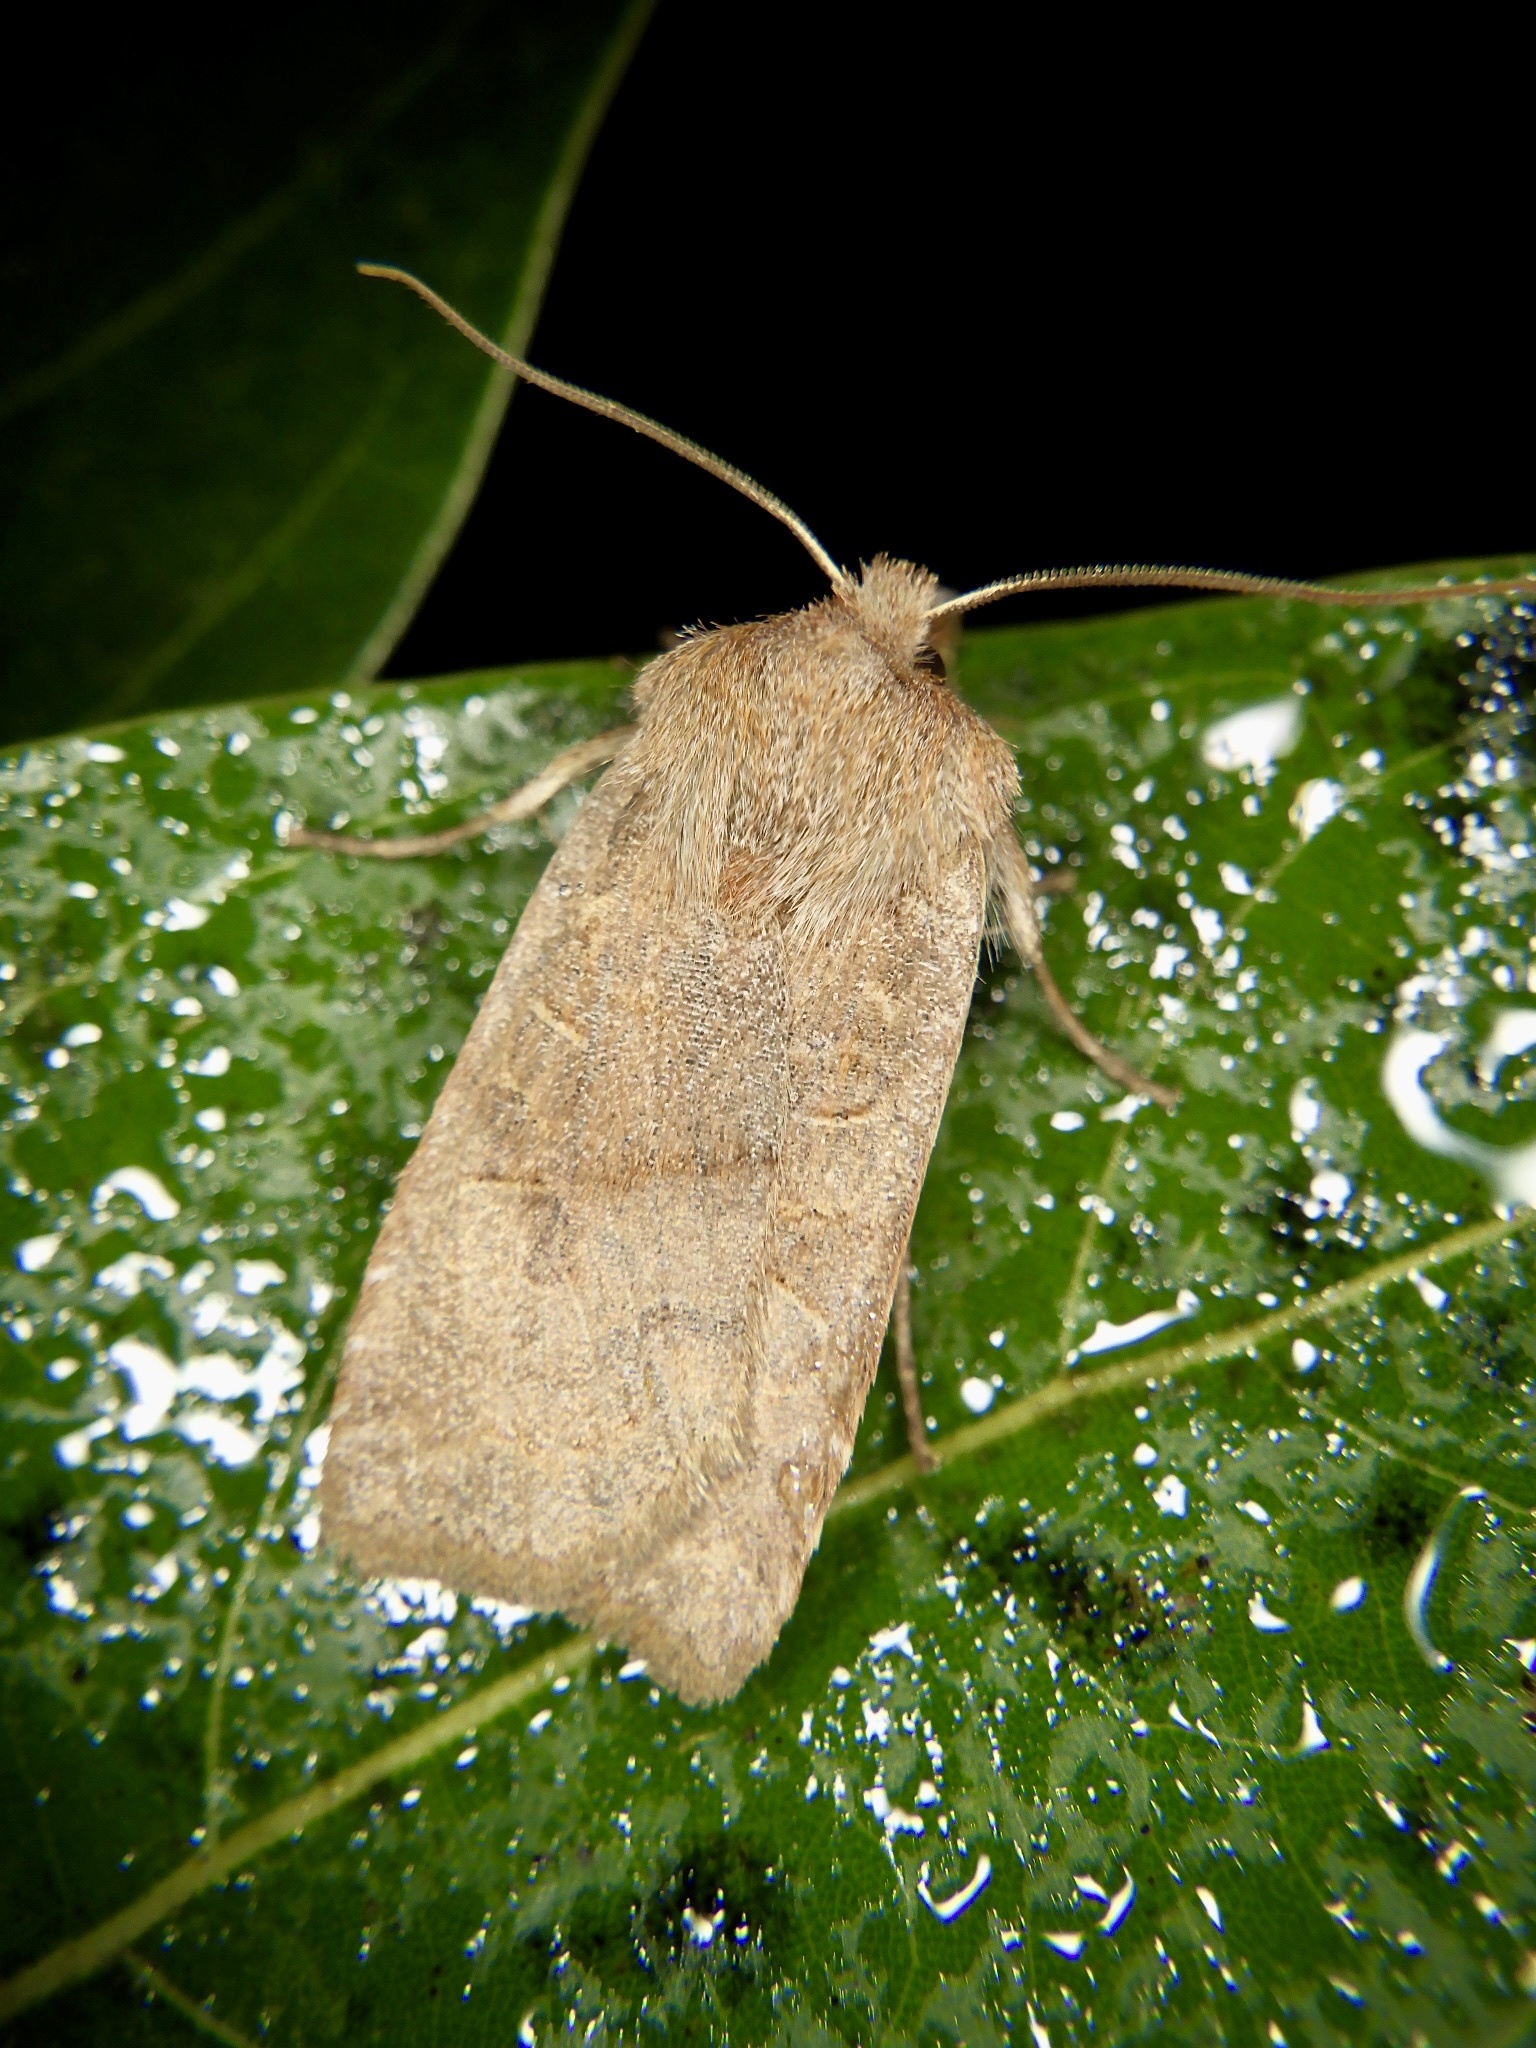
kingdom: Animalia
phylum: Arthropoda
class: Insecta
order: Lepidoptera
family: Noctuidae
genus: Conistra
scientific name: Conistra fletcheri
